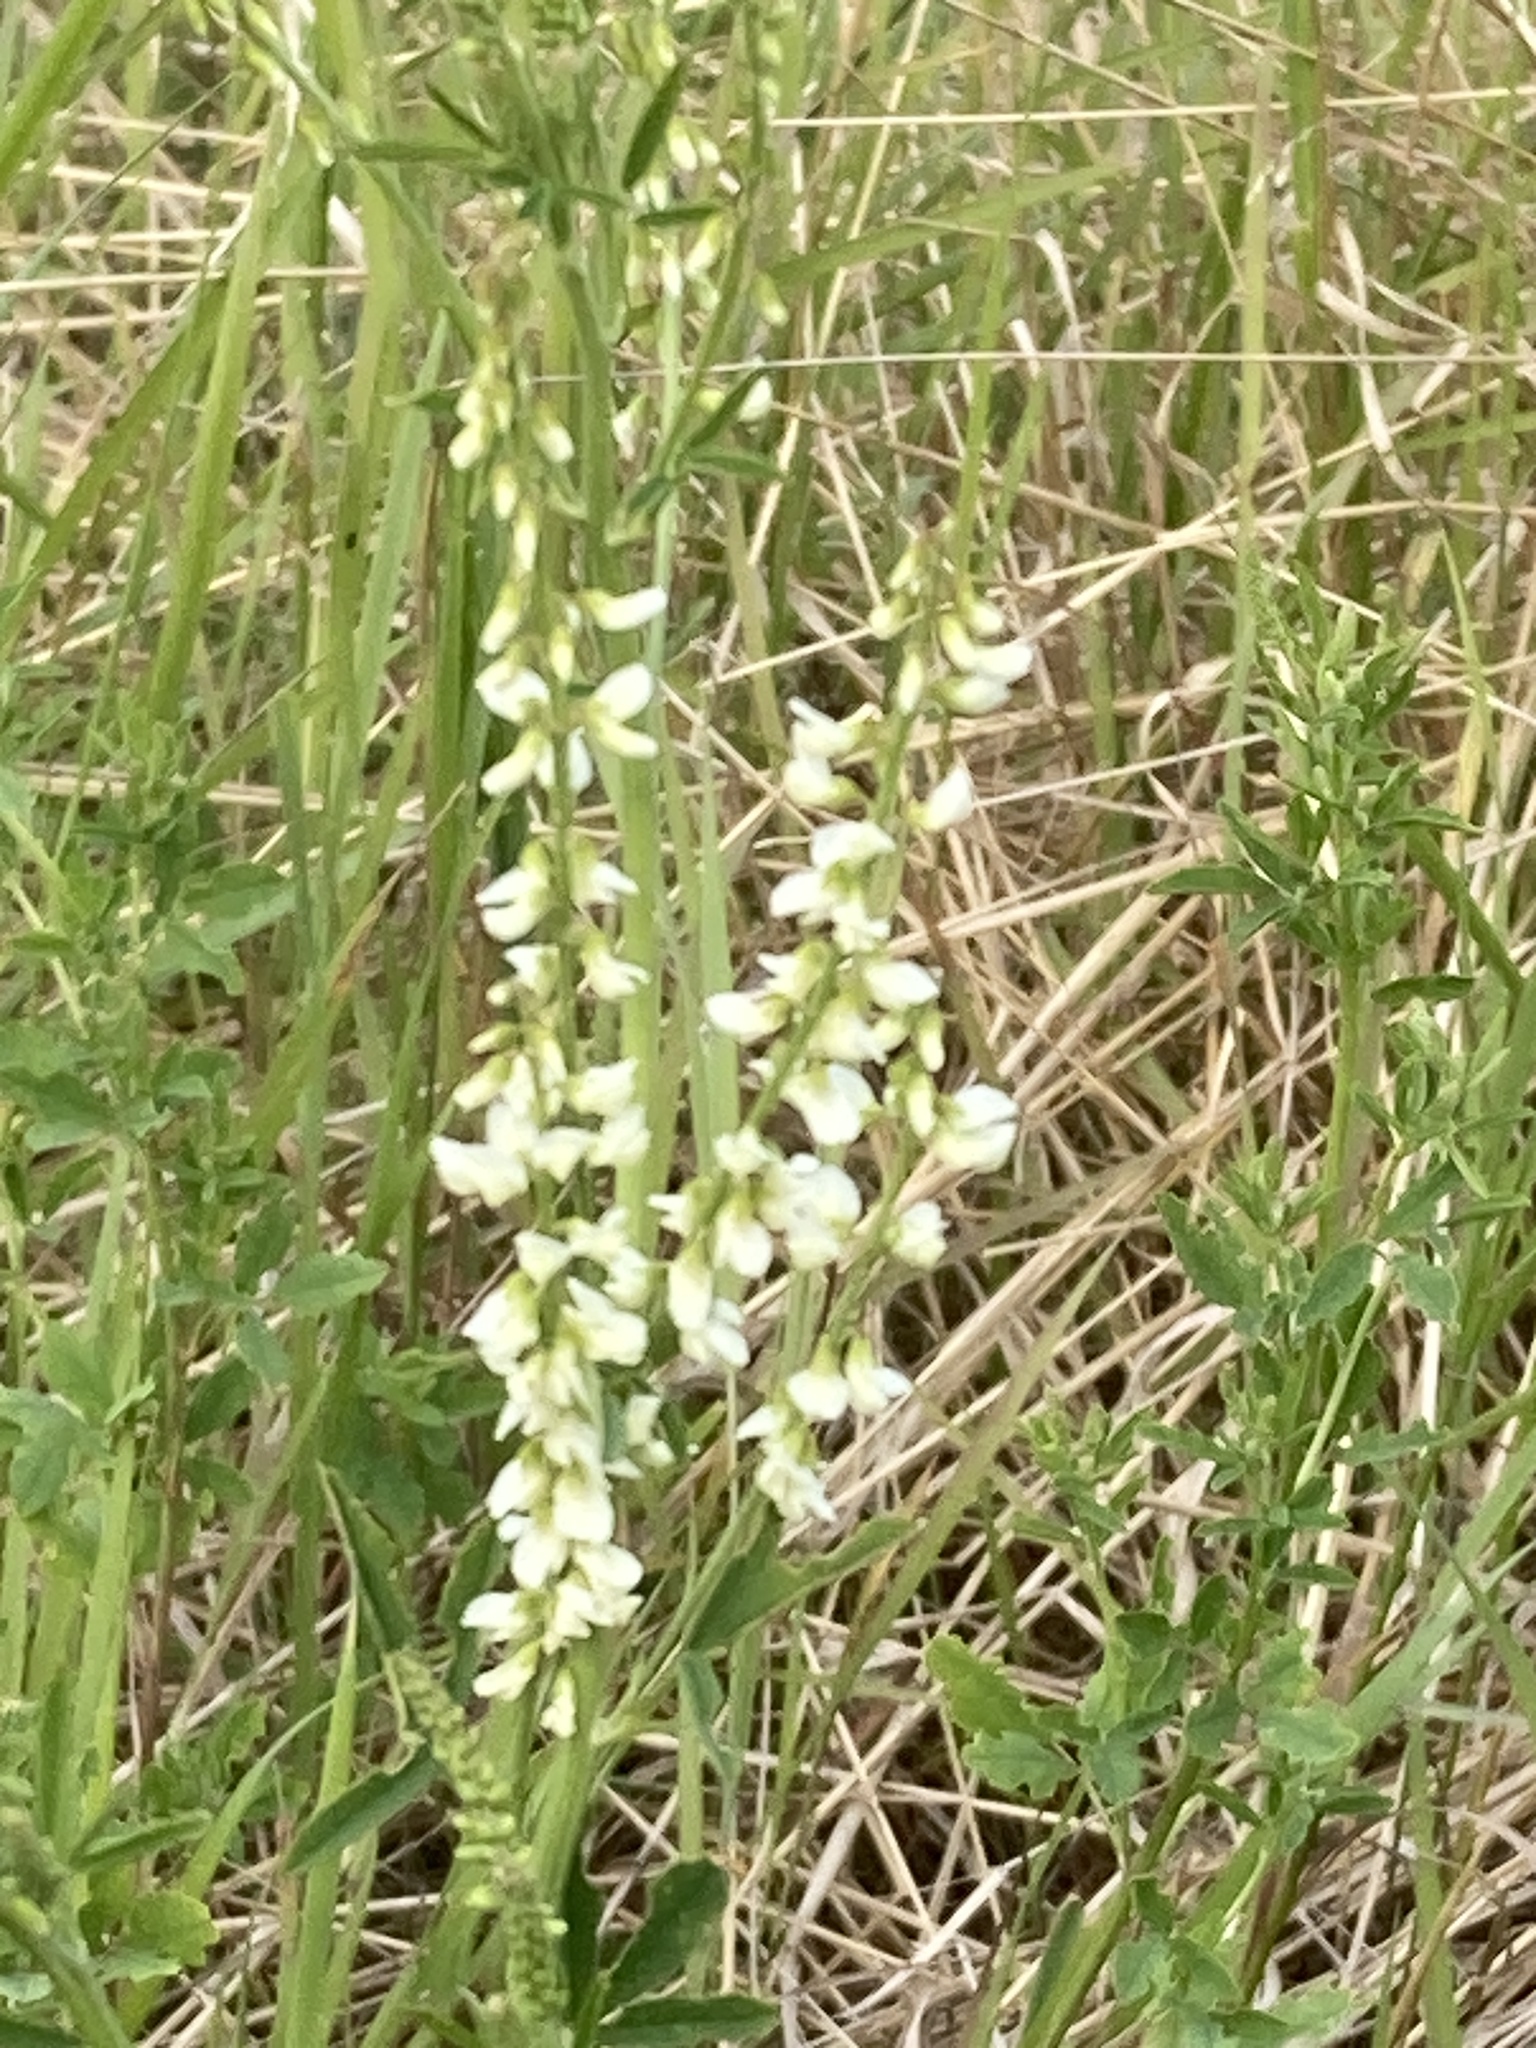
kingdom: Plantae
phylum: Tracheophyta
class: Magnoliopsida
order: Fabales
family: Fabaceae
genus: Melilotus
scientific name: Melilotus albus
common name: White melilot
